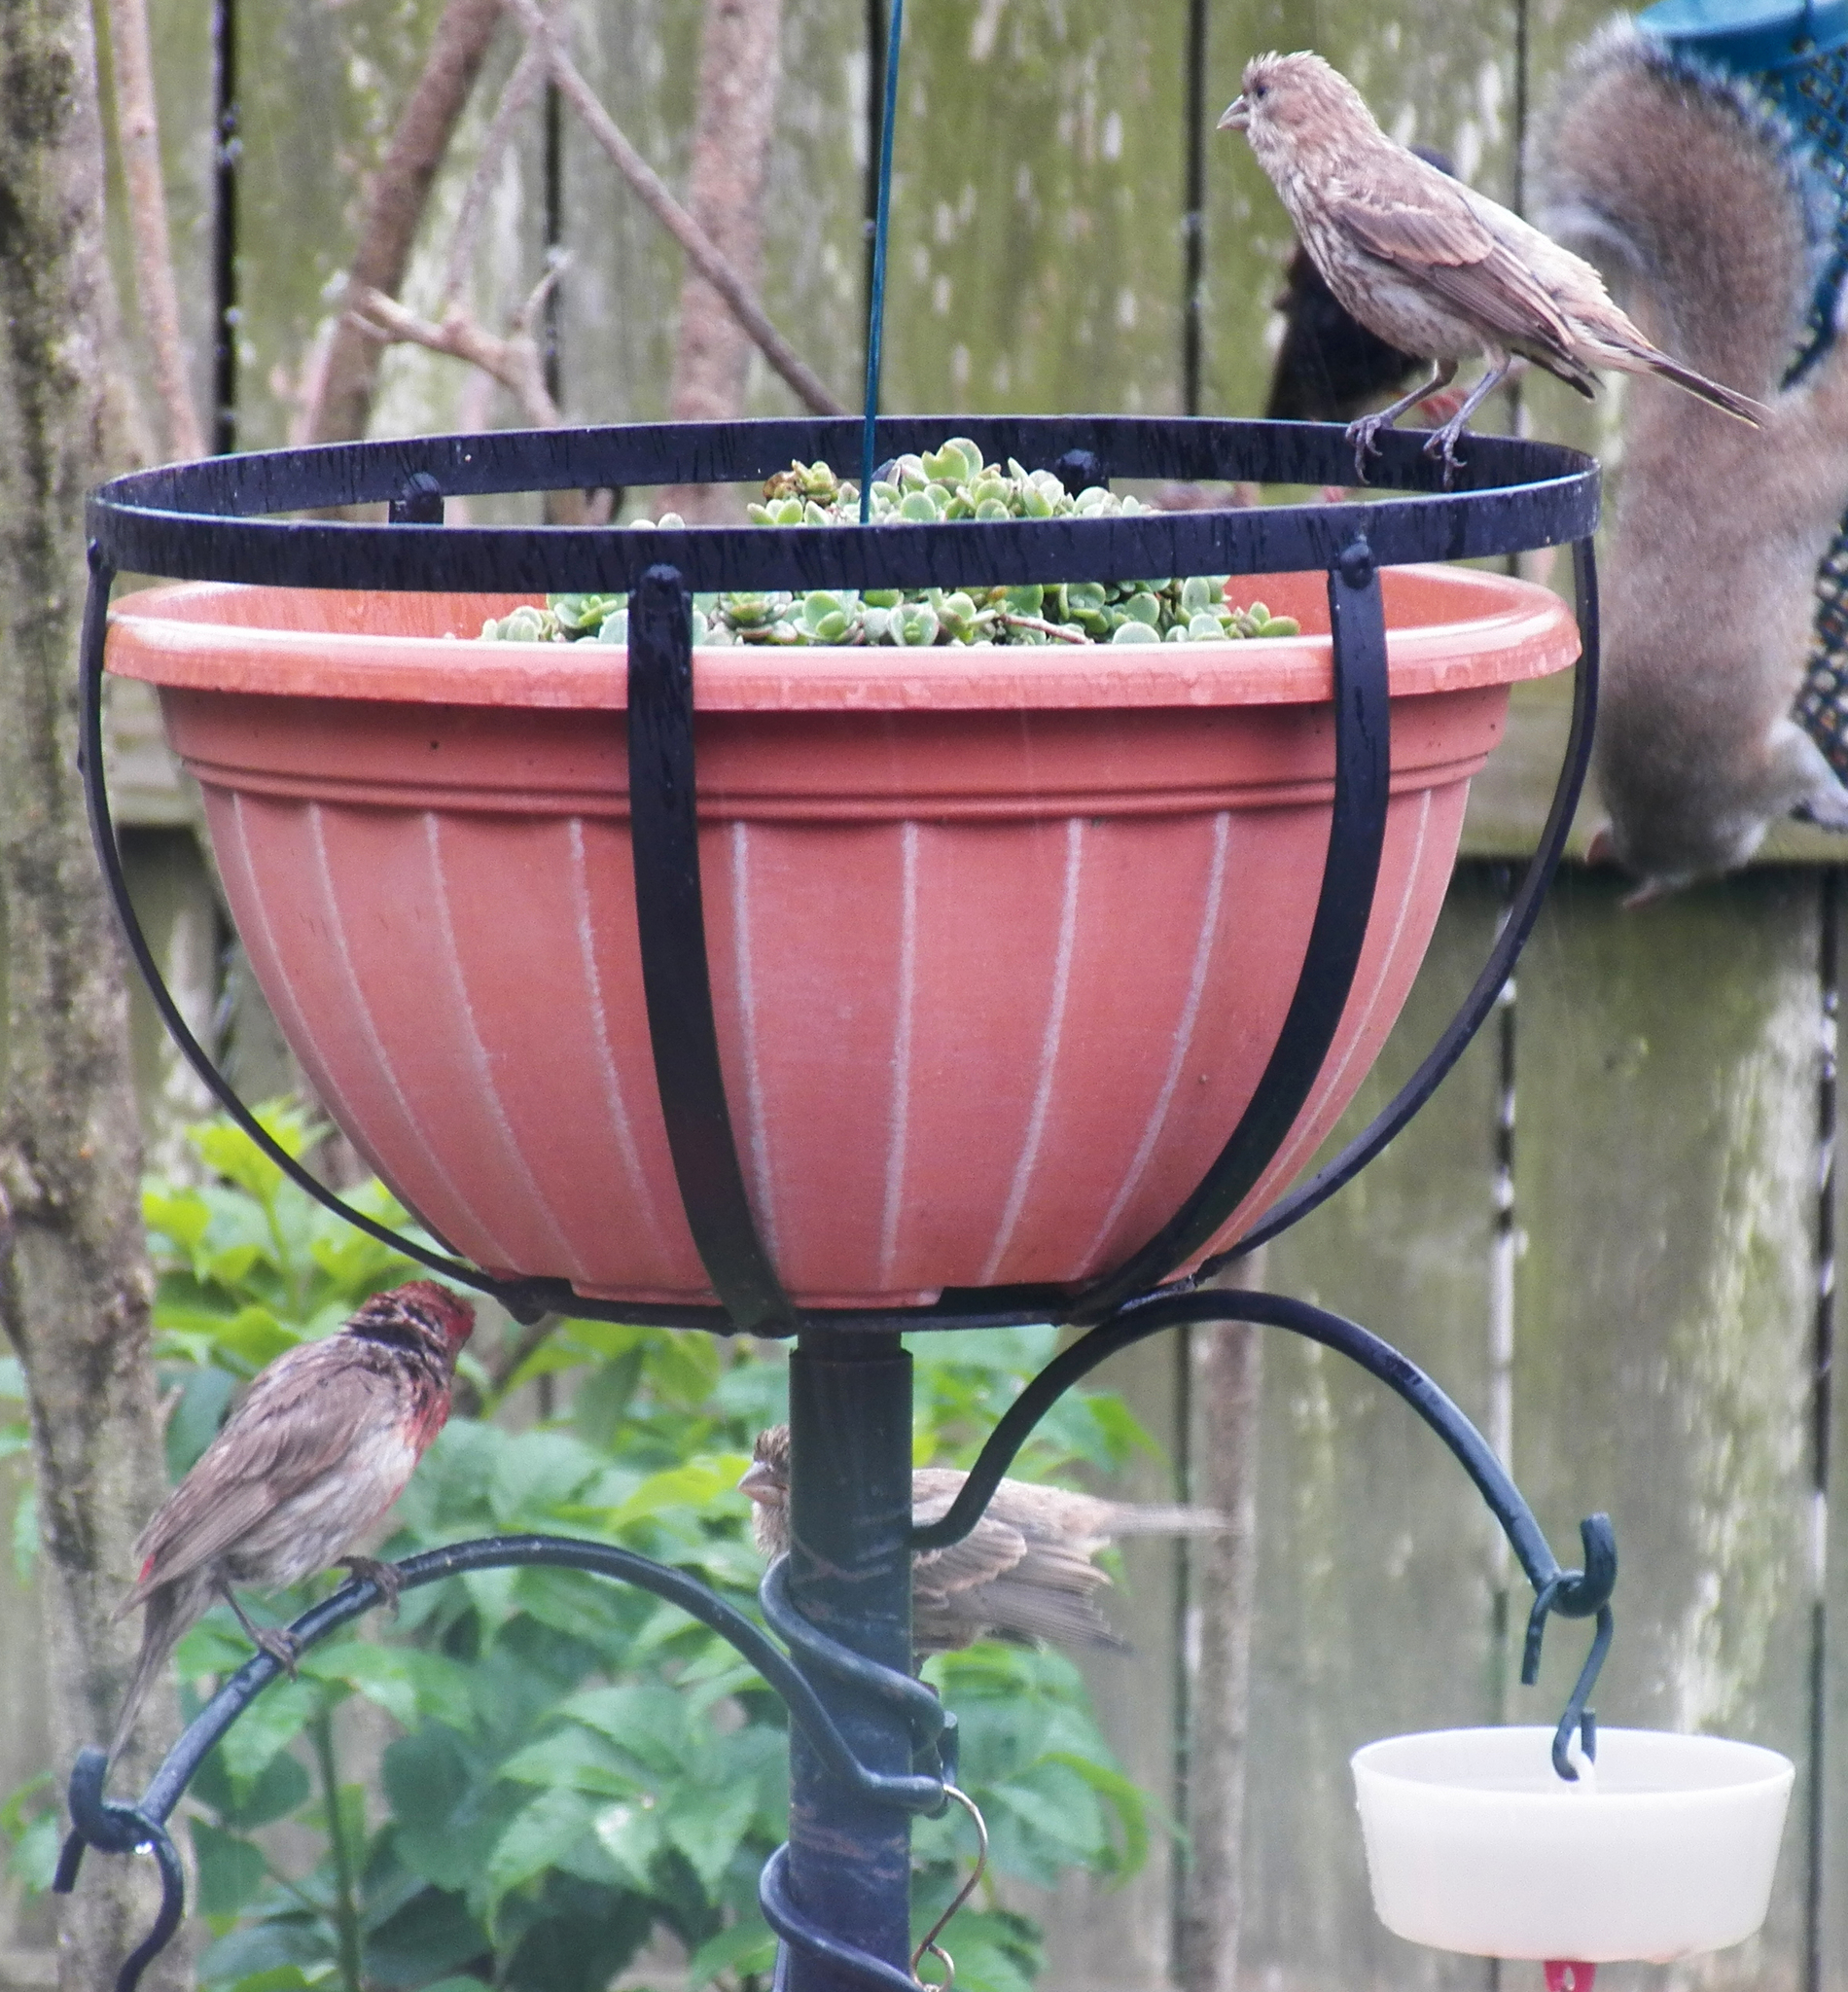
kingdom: Animalia
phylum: Chordata
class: Aves
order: Passeriformes
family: Fringillidae
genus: Haemorhous
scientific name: Haemorhous mexicanus
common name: House finch
